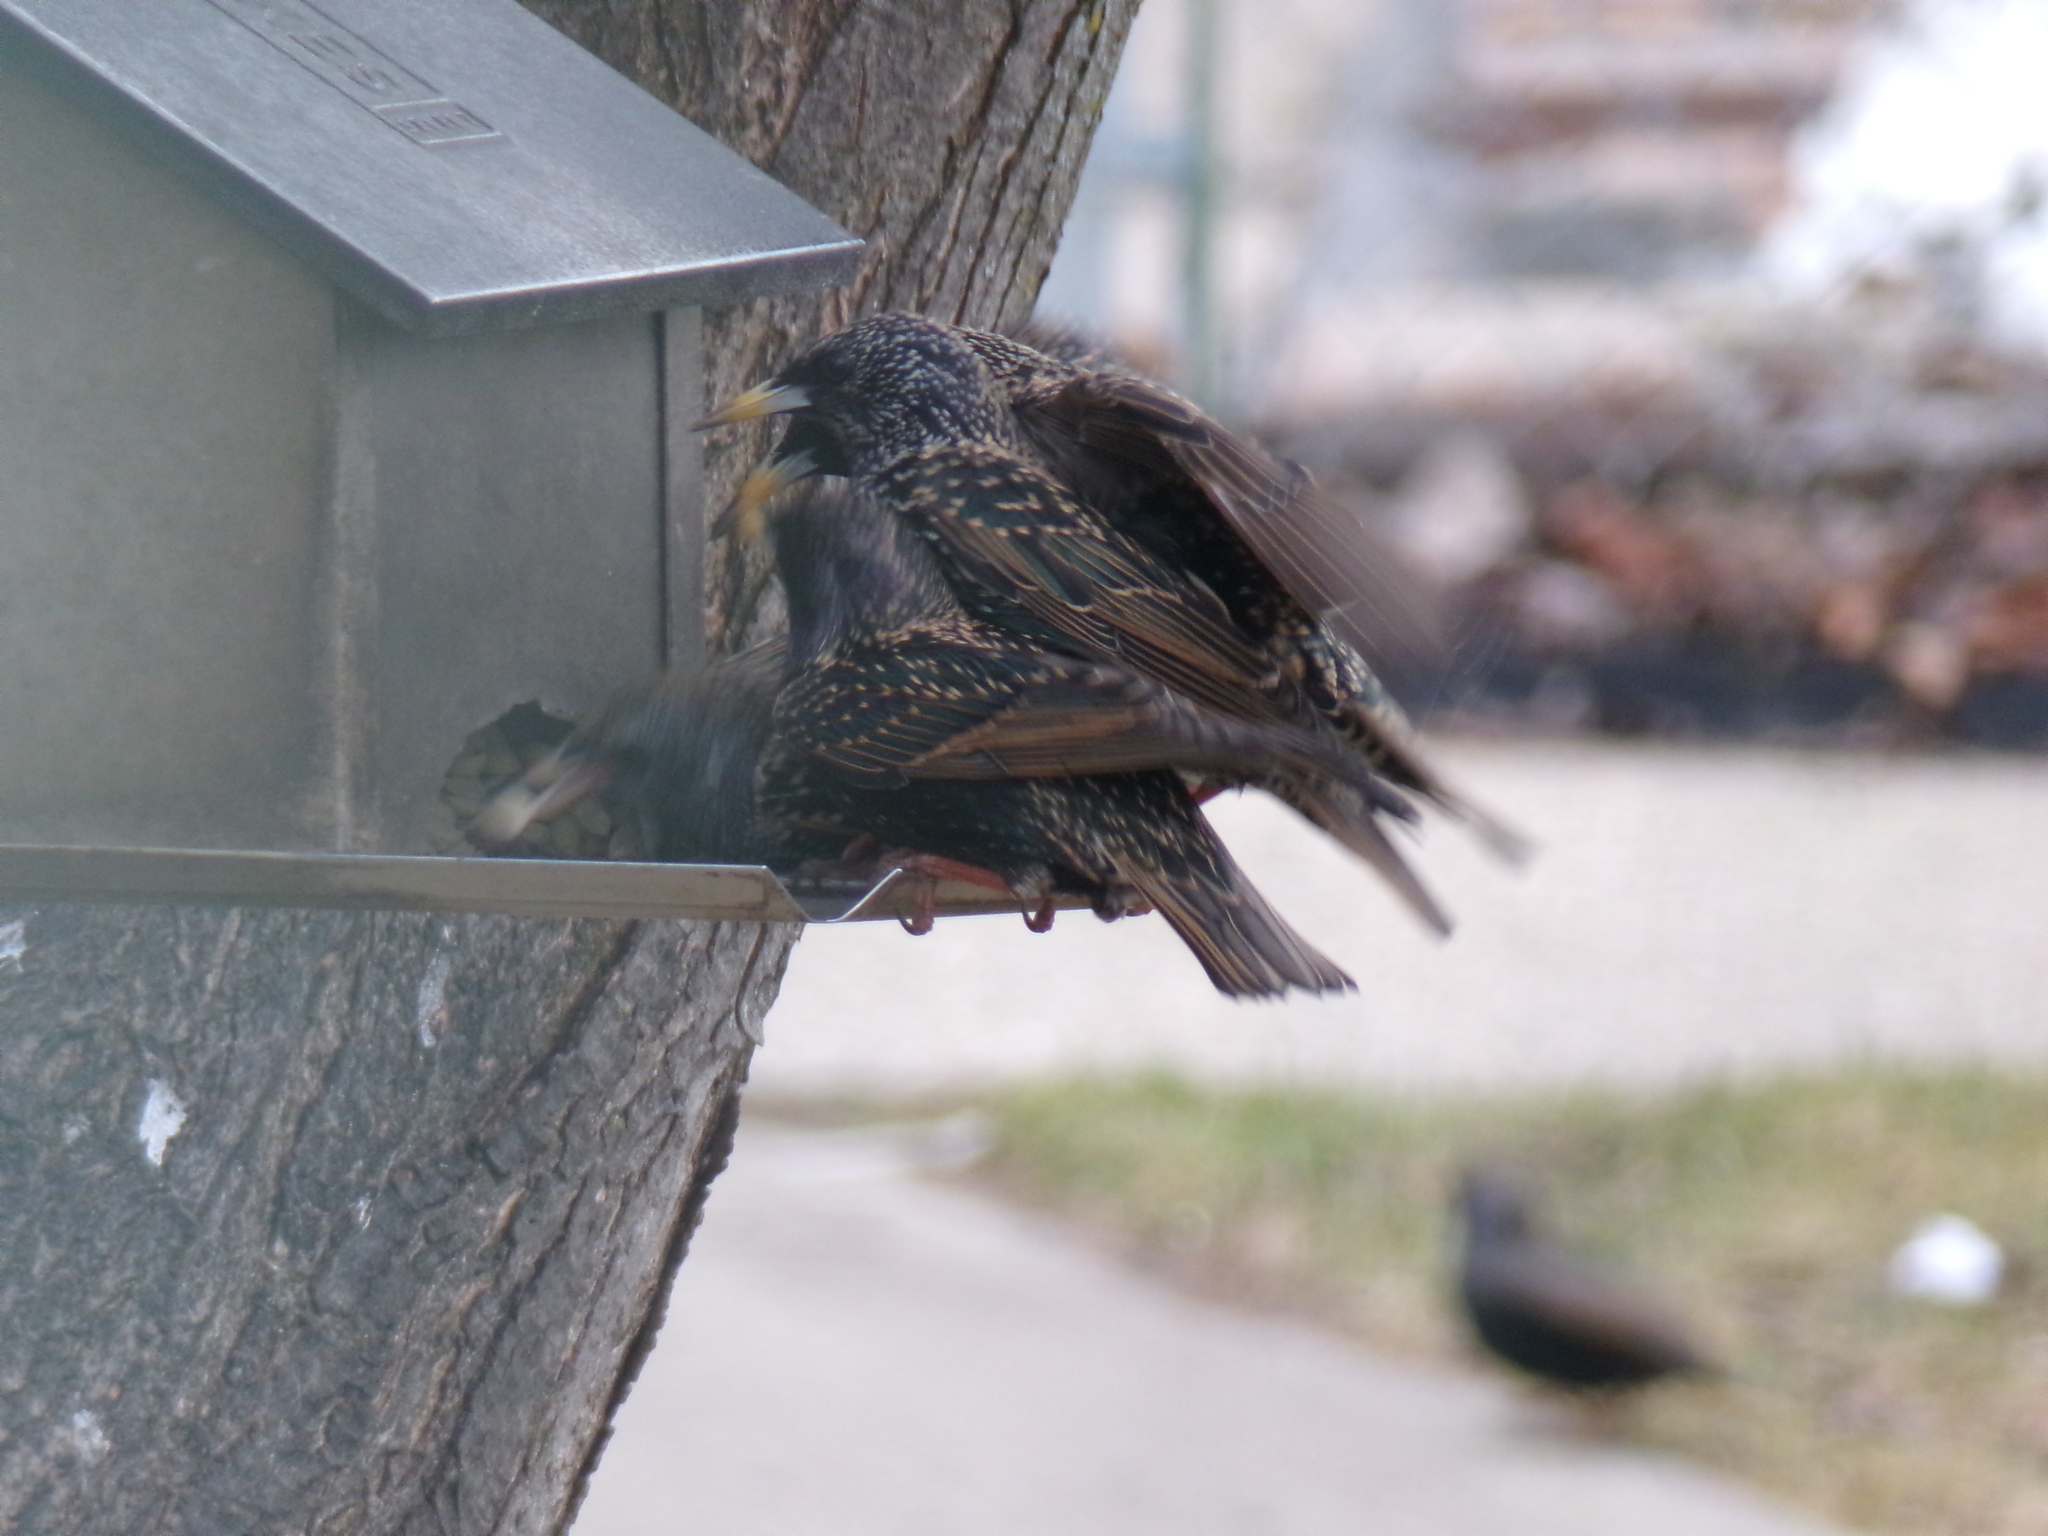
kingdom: Animalia
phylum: Chordata
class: Aves
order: Passeriformes
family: Sturnidae
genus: Sturnus
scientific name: Sturnus vulgaris
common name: Common starling
